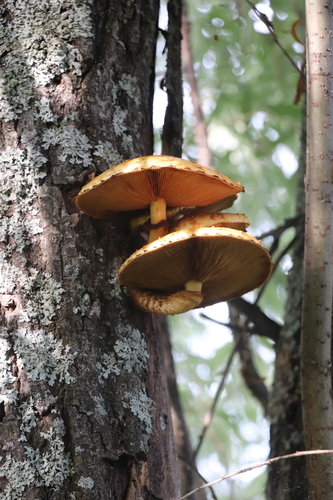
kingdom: Fungi
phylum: Basidiomycota
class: Agaricomycetes
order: Agaricales
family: Strophariaceae
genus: Pholiota
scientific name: Pholiota
